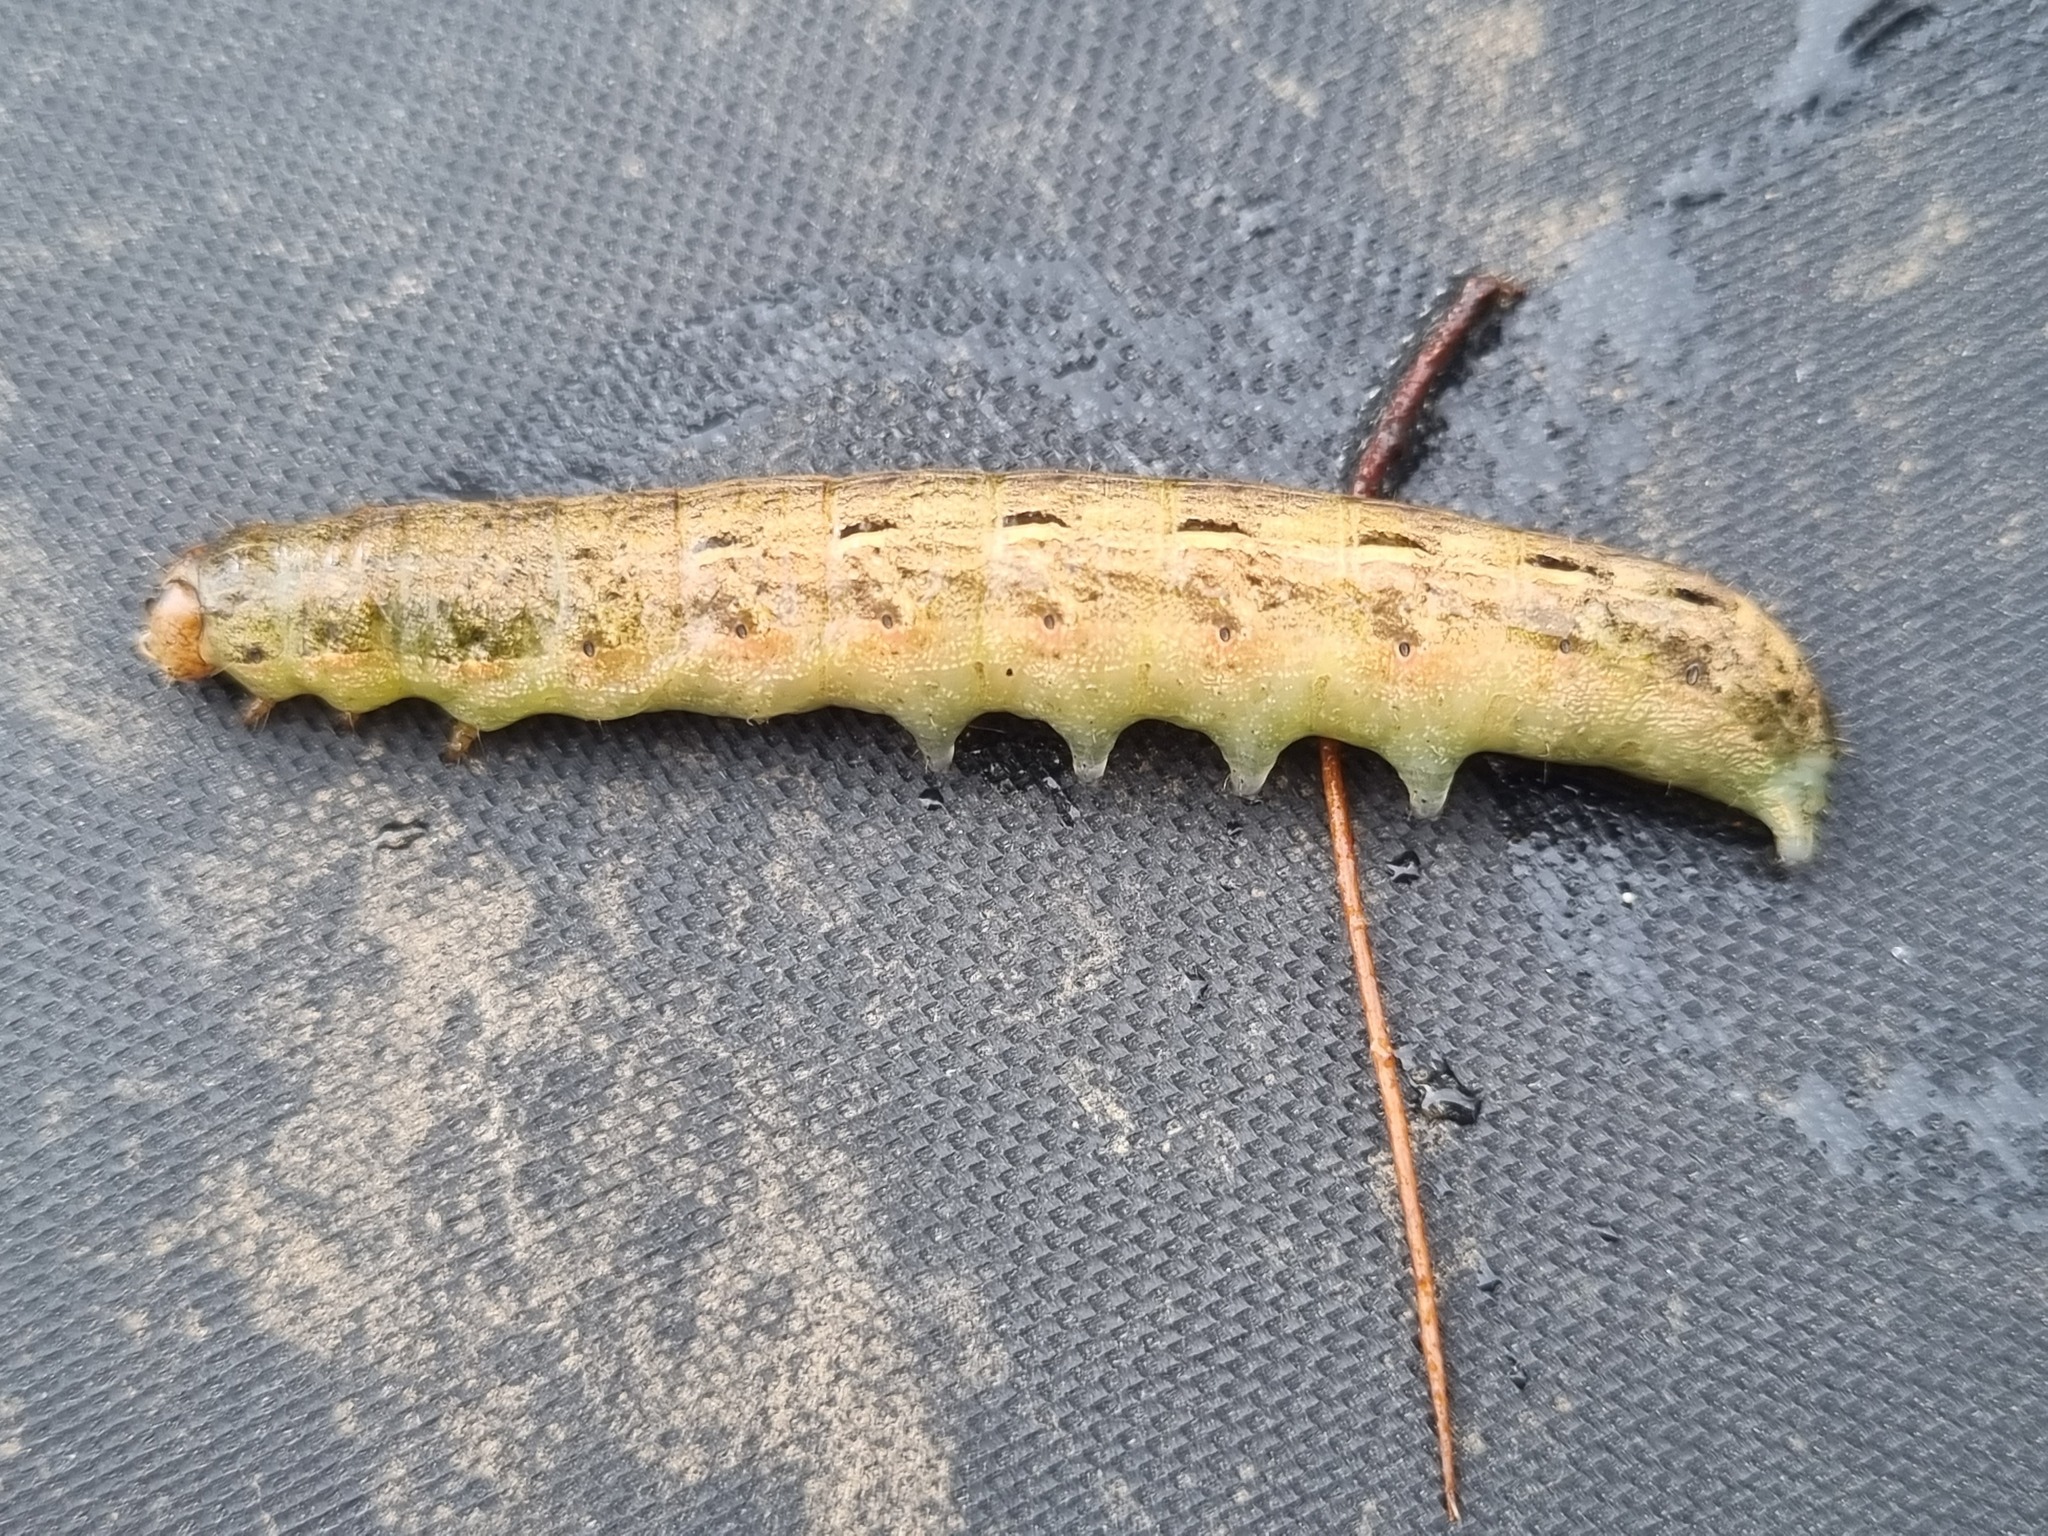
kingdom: Animalia
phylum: Arthropoda
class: Insecta
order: Lepidoptera
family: Noctuidae
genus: Noctua
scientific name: Noctua pronuba
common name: Large yellow underwing
